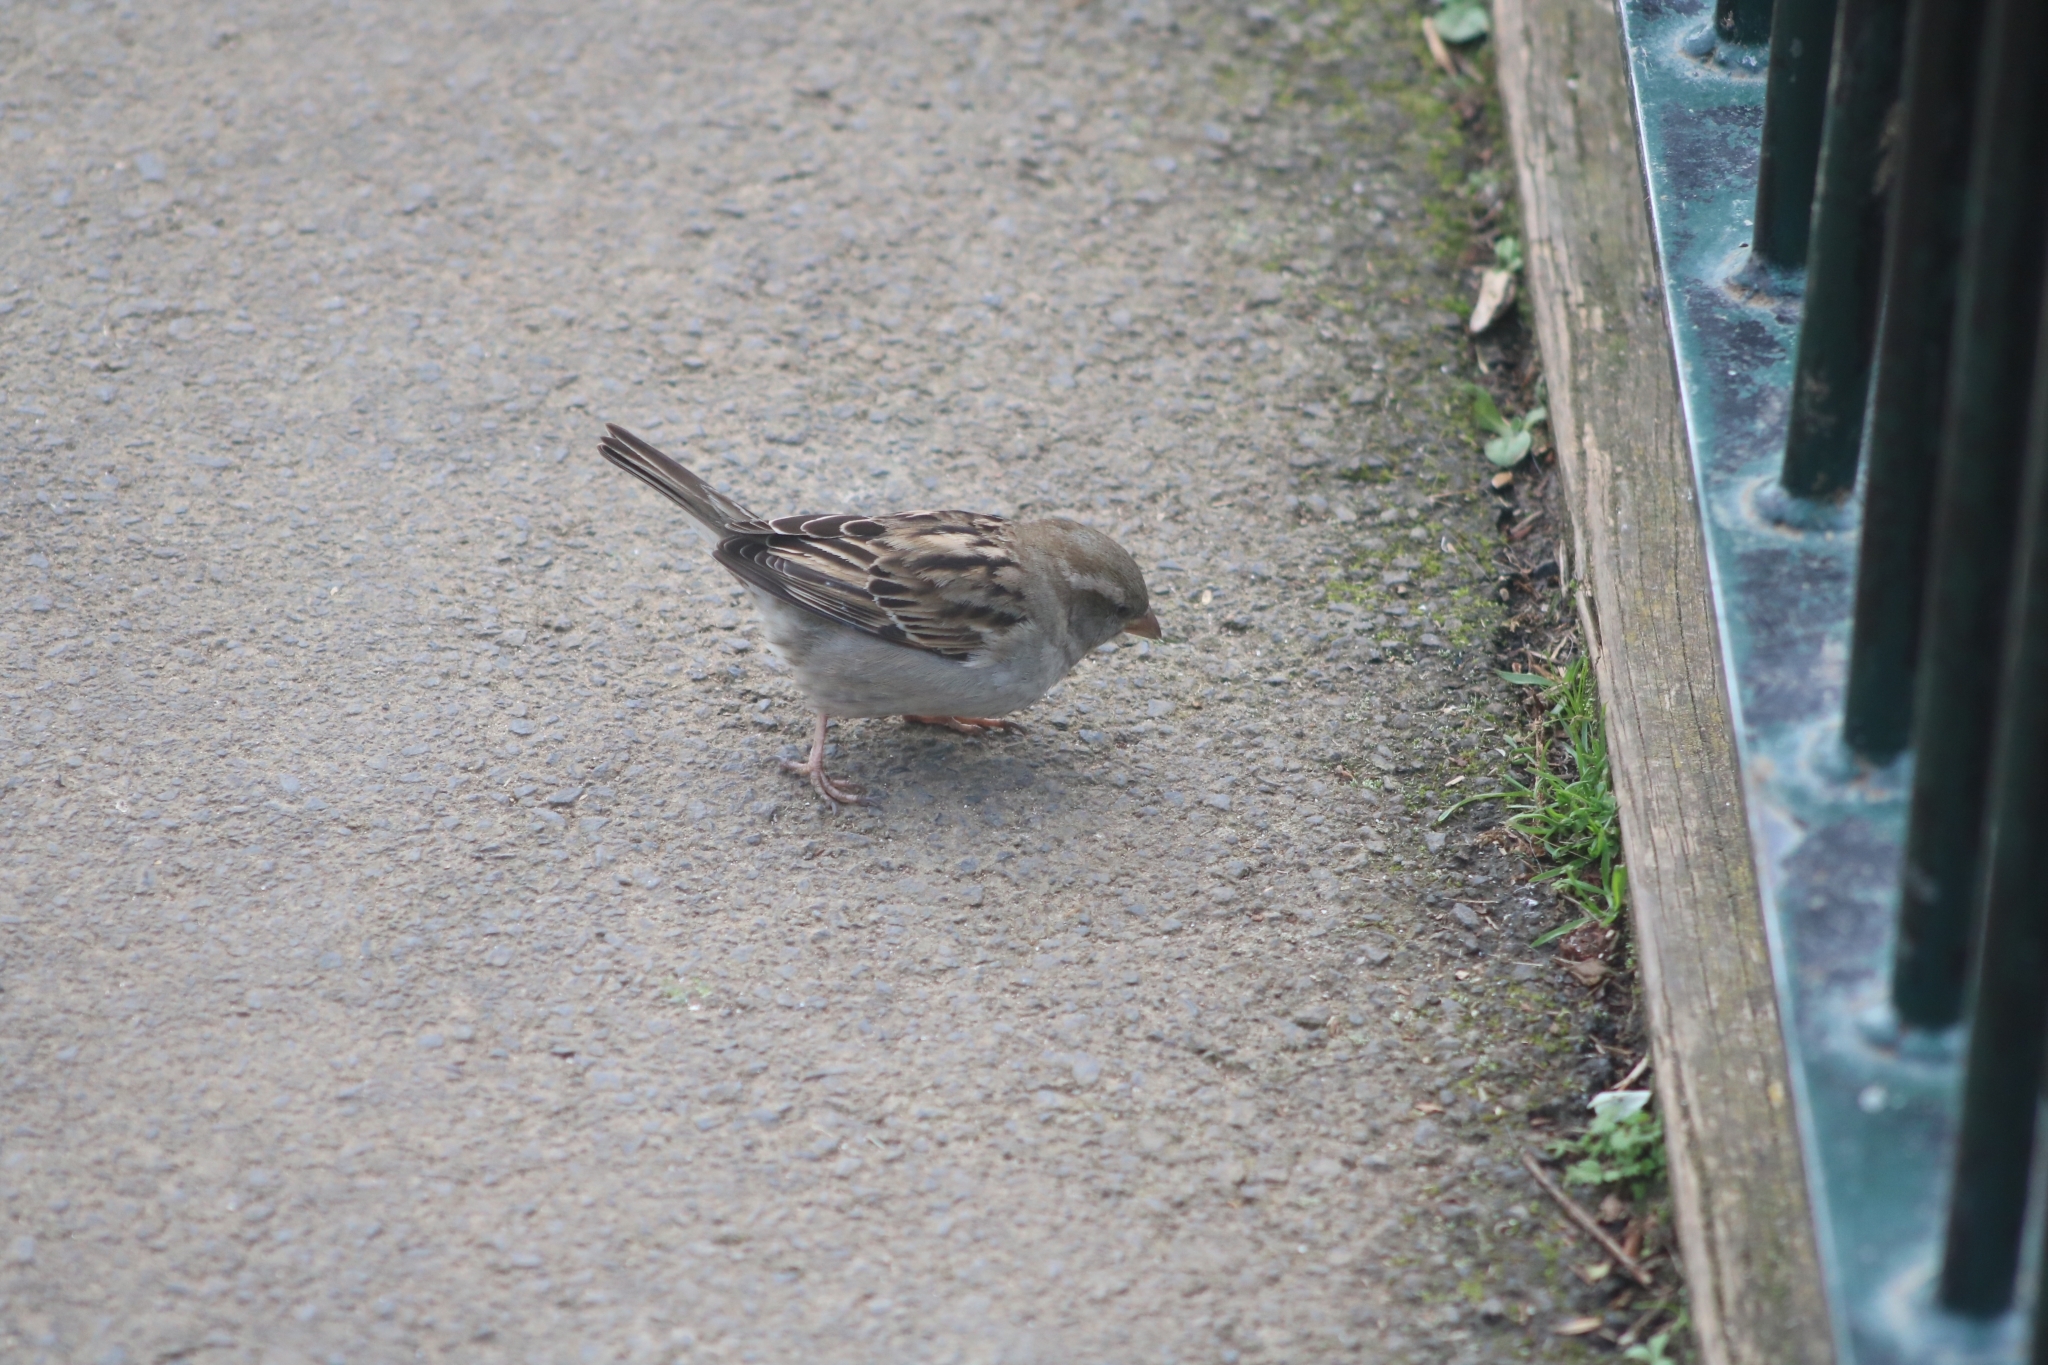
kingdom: Animalia
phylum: Chordata
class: Aves
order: Passeriformes
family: Passeridae
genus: Passer
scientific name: Passer domesticus
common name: House sparrow
